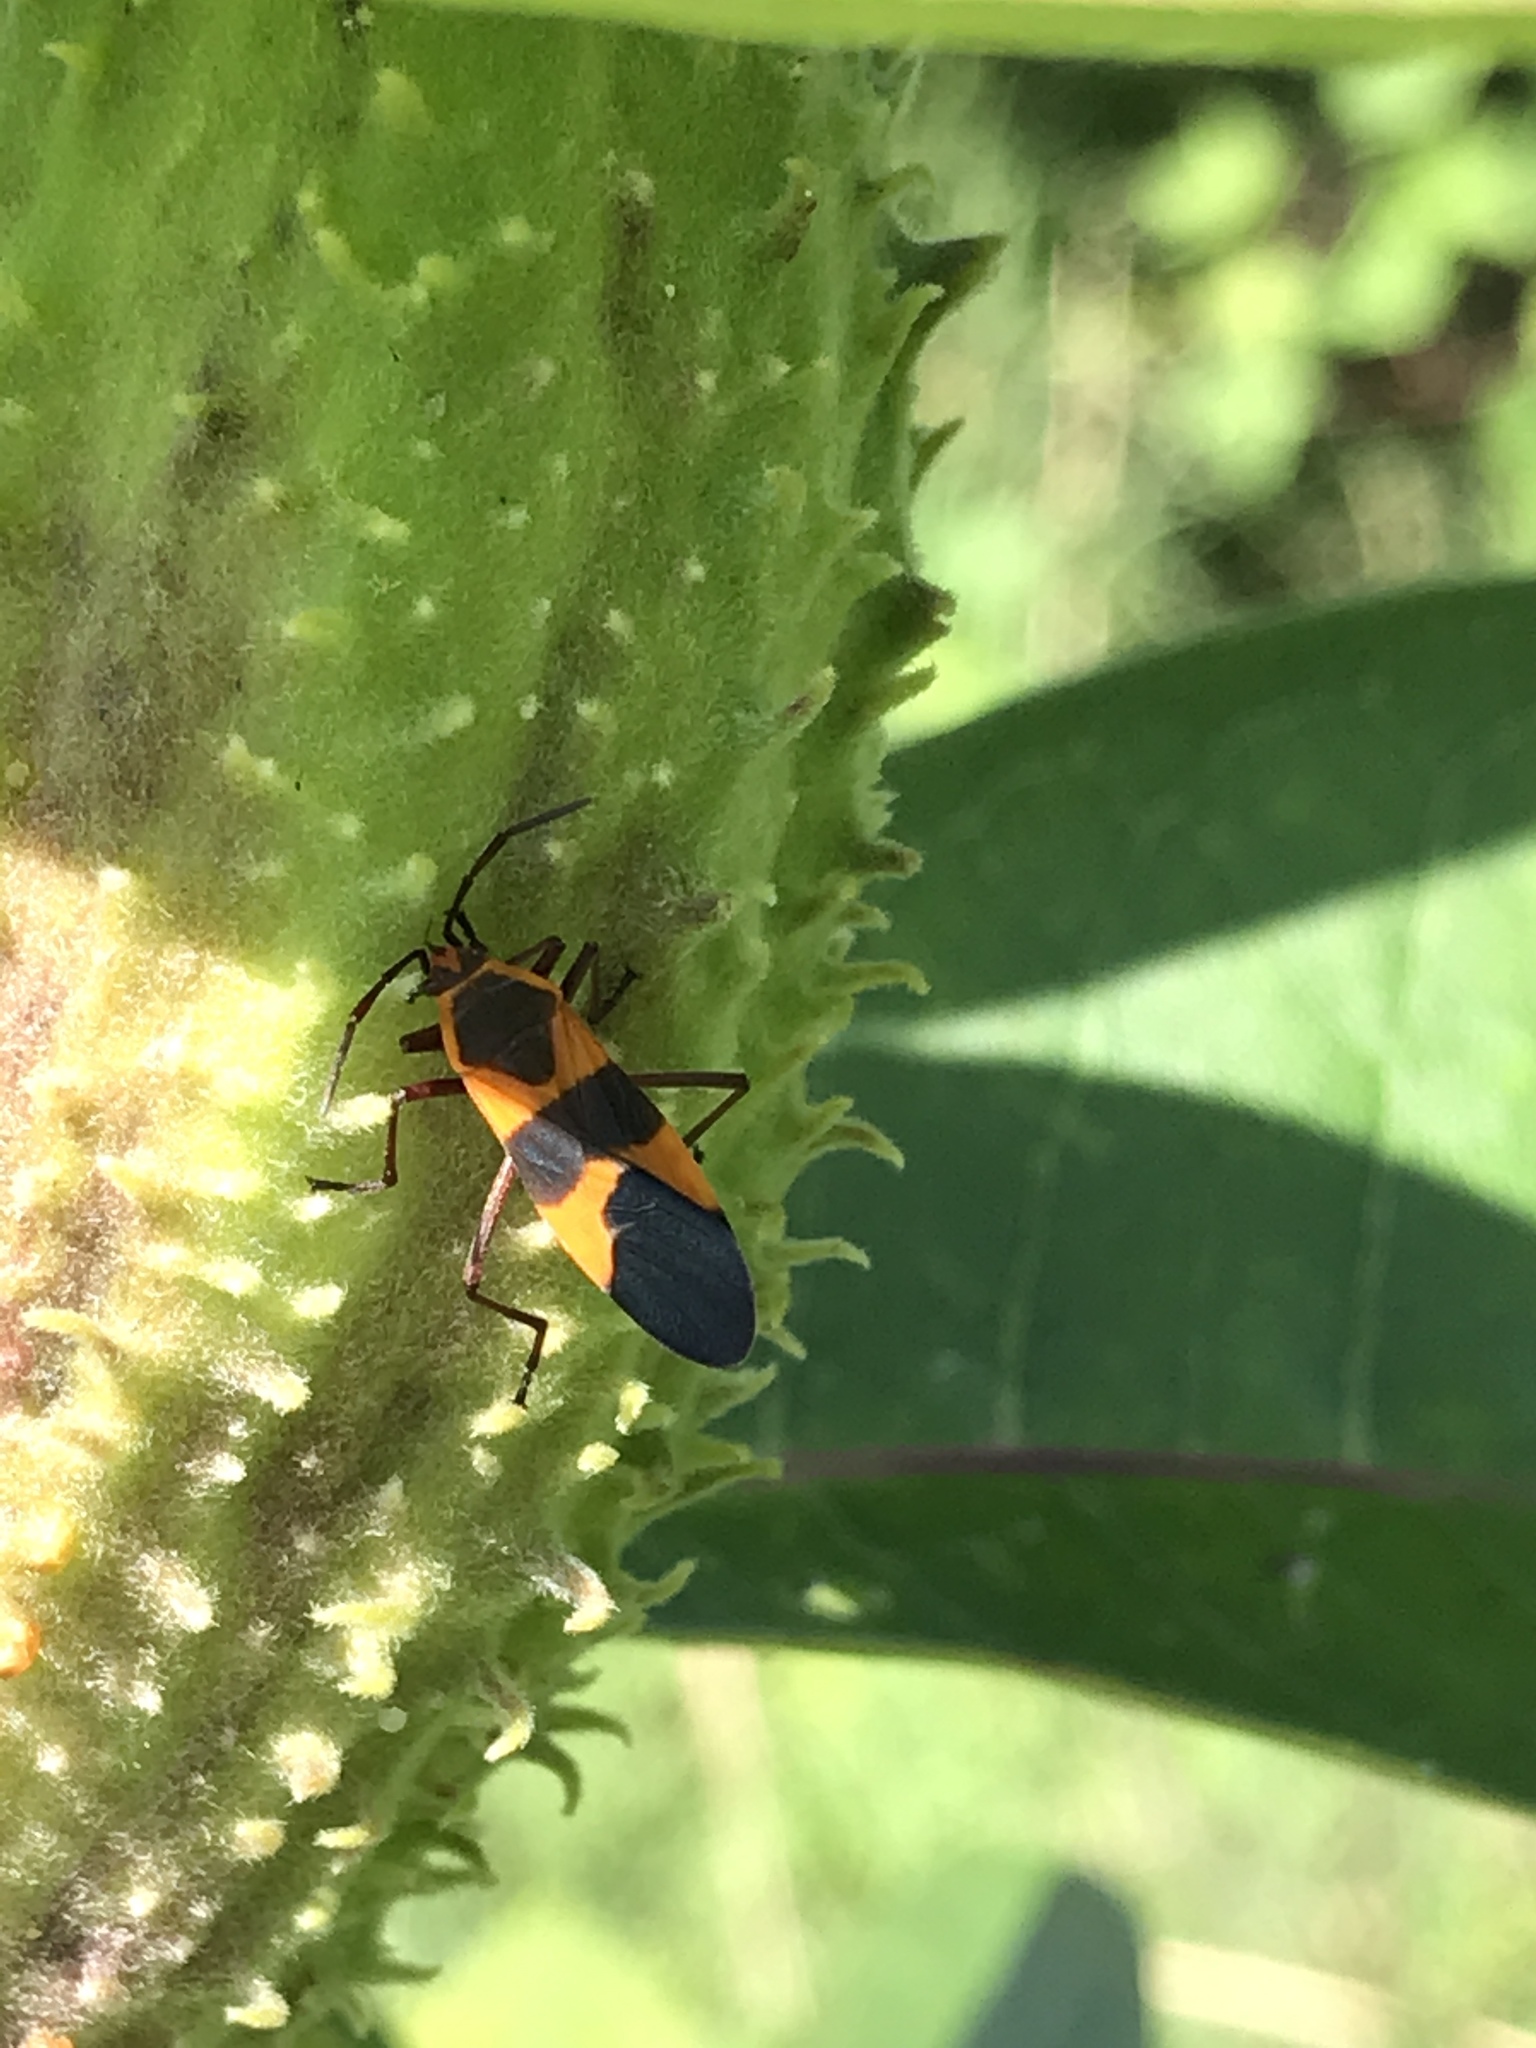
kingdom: Animalia
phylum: Arthropoda
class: Insecta
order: Hemiptera
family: Lygaeidae
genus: Oncopeltus
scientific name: Oncopeltus fasciatus
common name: Large milkweed bug
